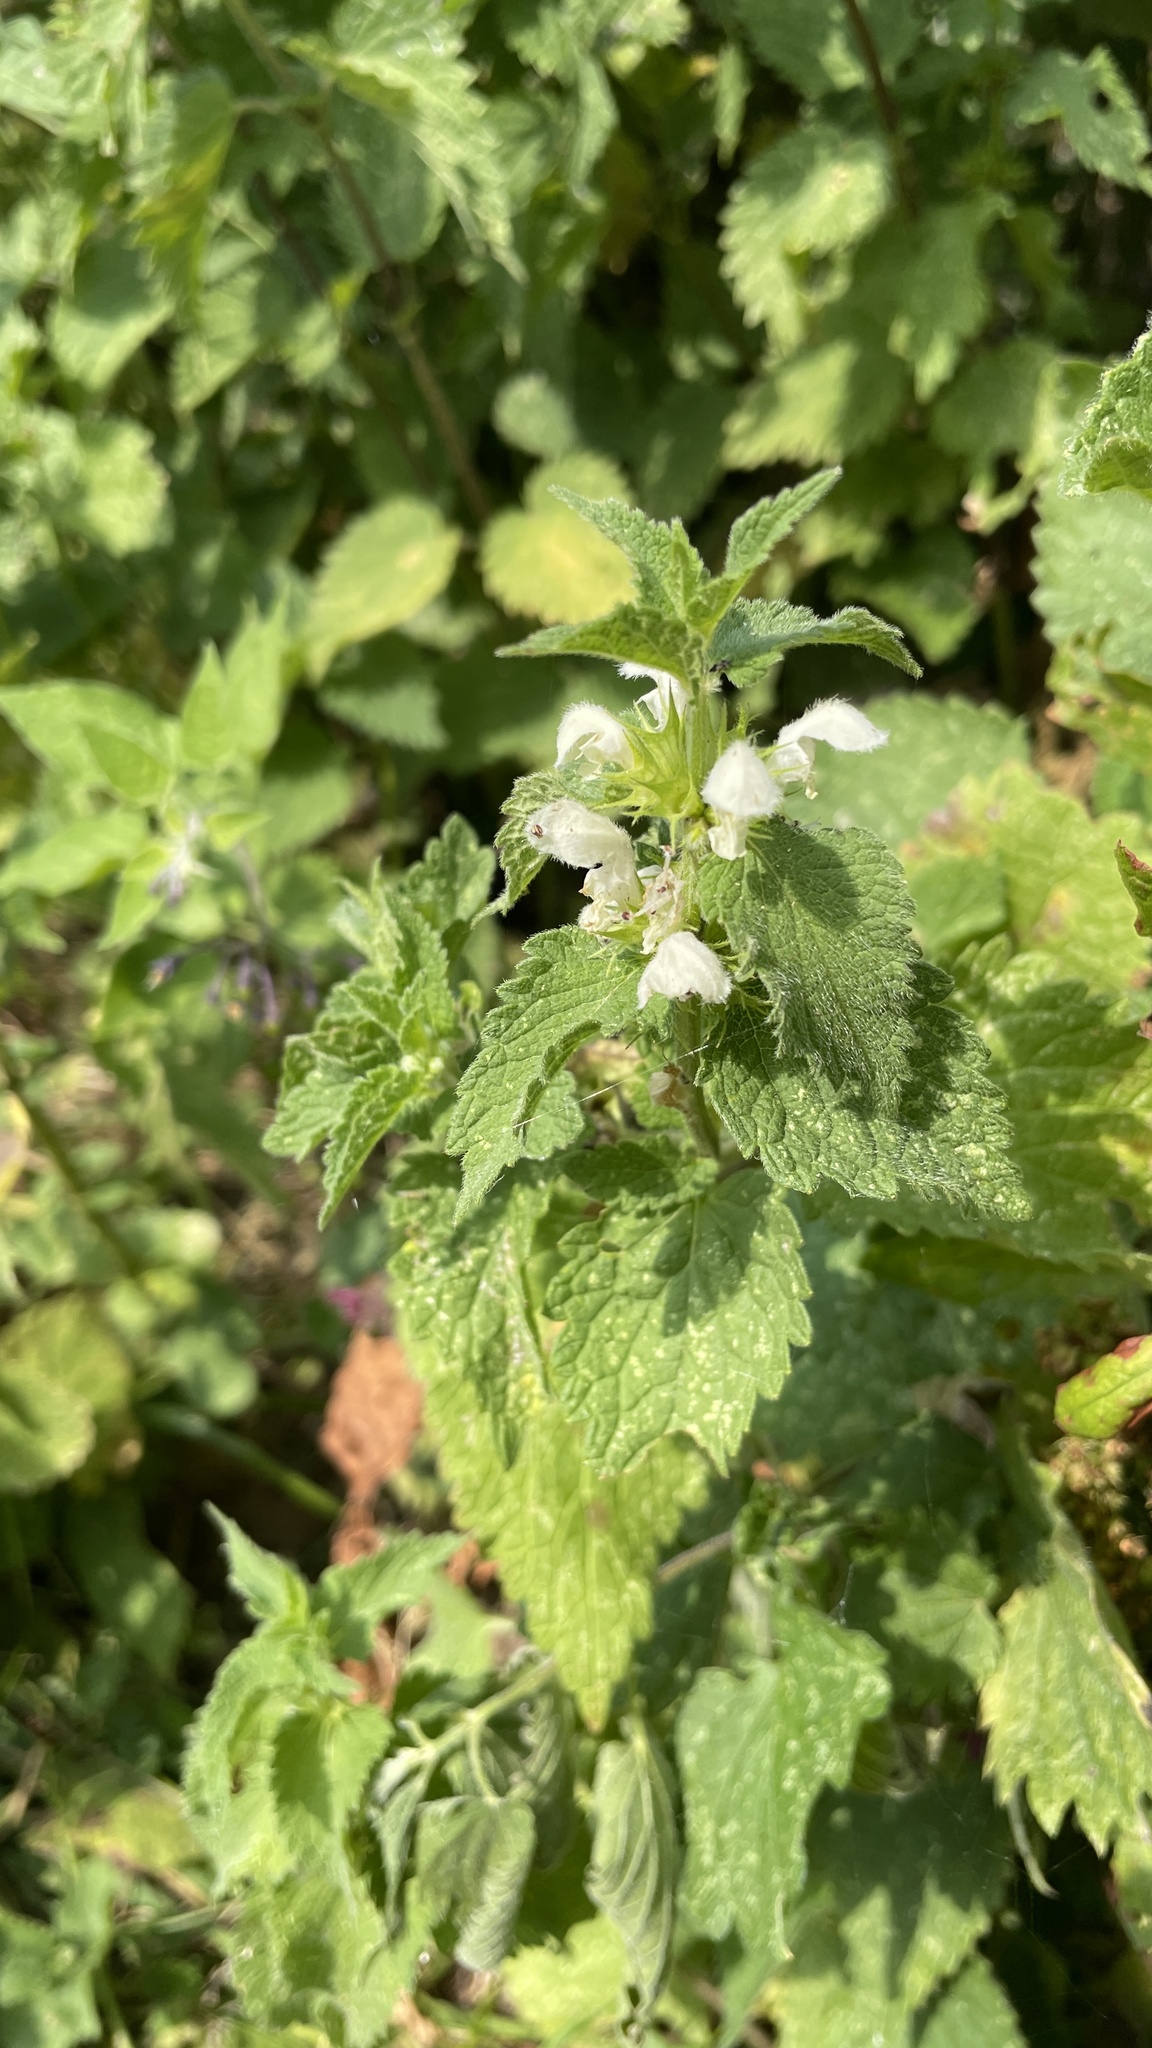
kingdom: Plantae
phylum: Tracheophyta
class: Magnoliopsida
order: Lamiales
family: Lamiaceae
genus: Lamium
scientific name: Lamium album
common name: White dead-nettle
